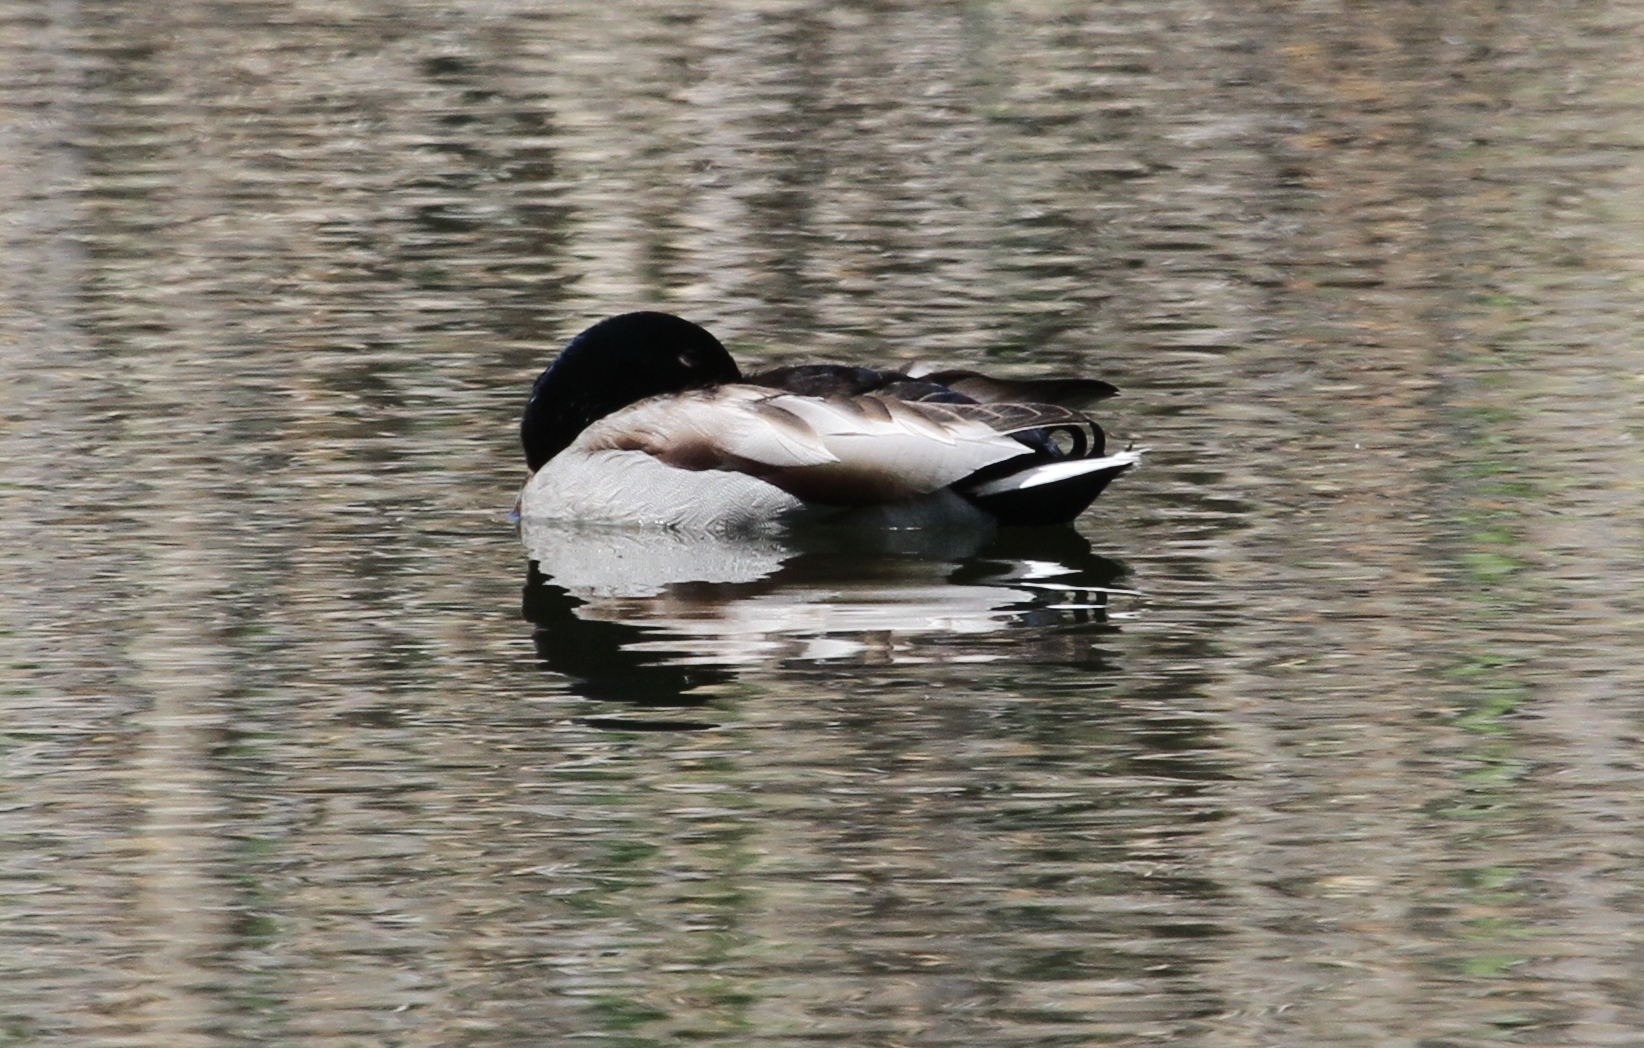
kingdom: Animalia
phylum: Chordata
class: Aves
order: Anseriformes
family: Anatidae
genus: Anas
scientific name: Anas platyrhynchos
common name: Mallard
